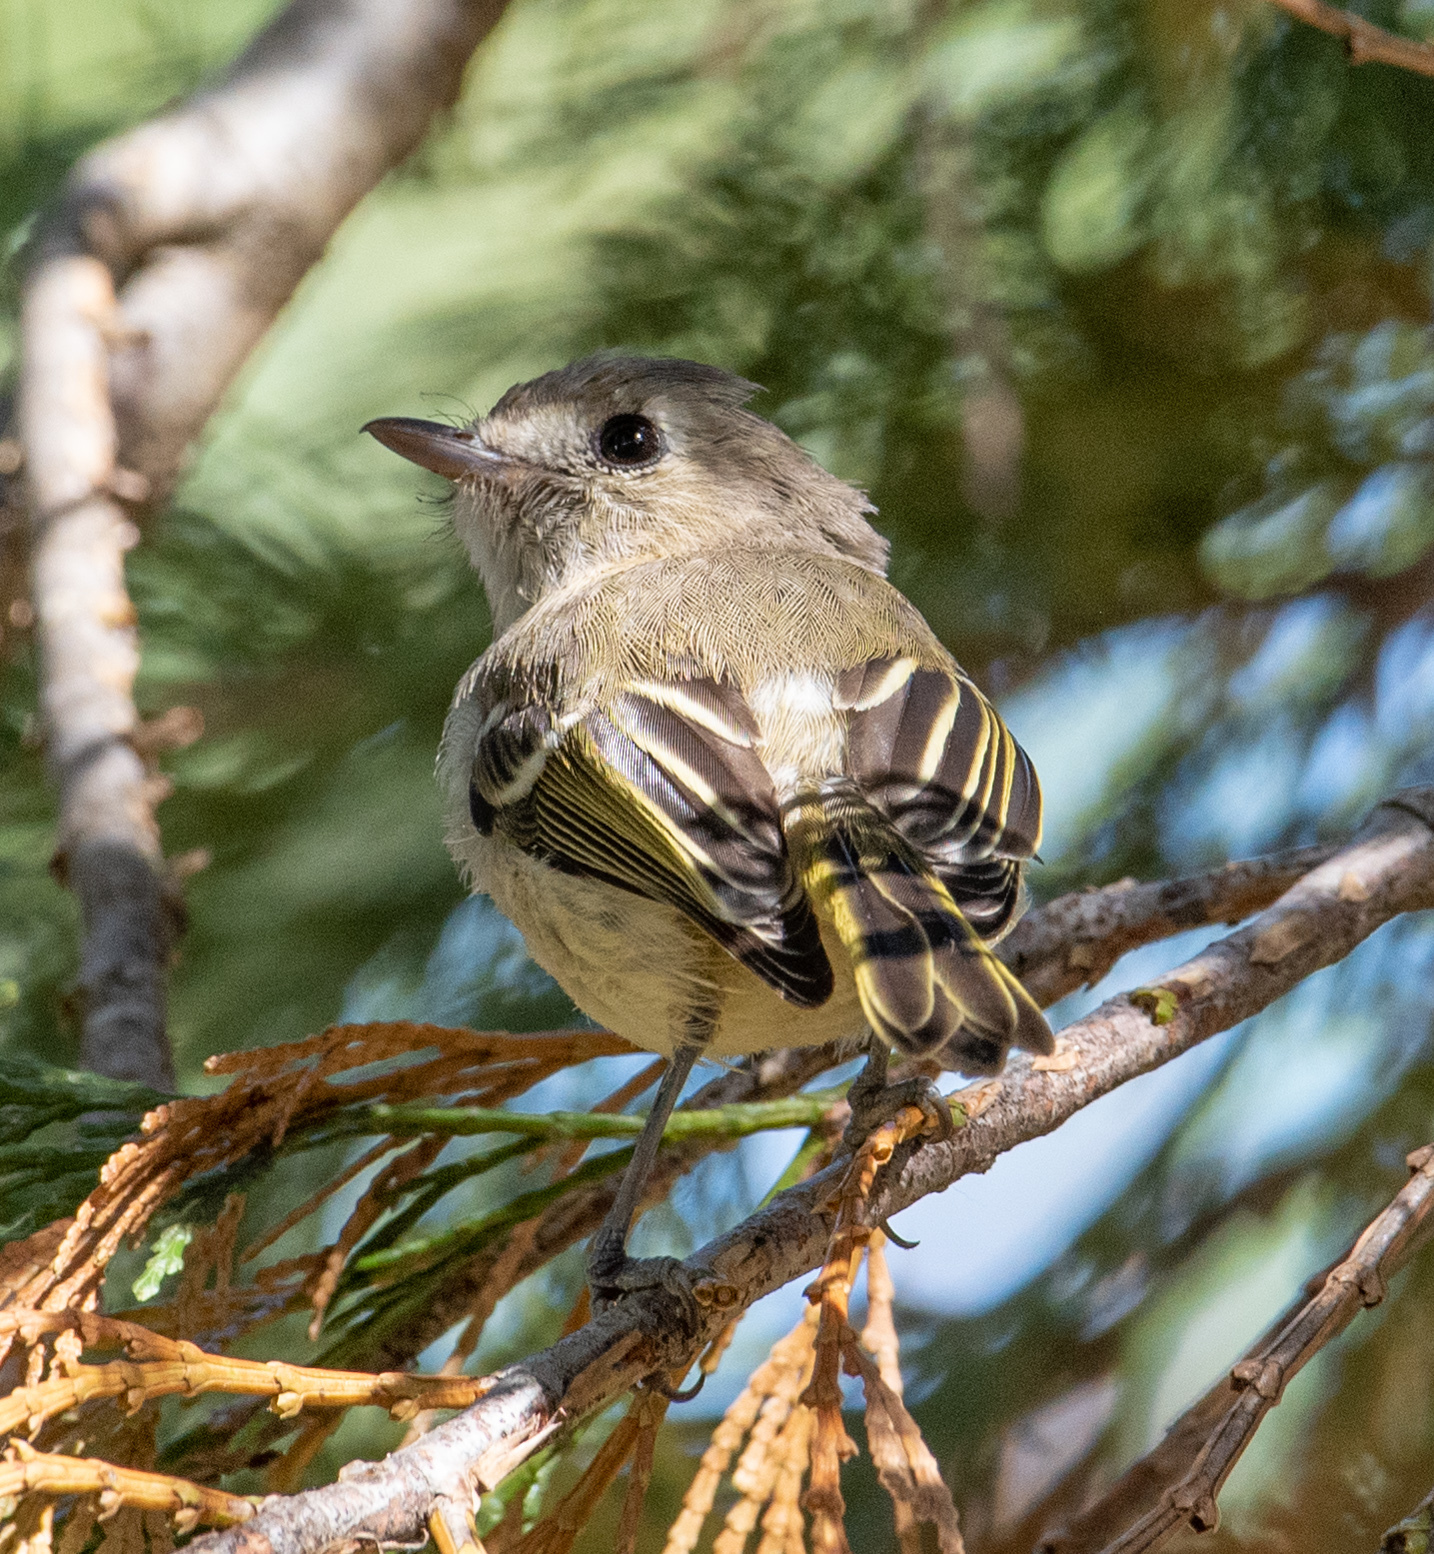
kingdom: Animalia
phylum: Chordata
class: Aves
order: Passeriformes
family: Vireonidae
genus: Vireo
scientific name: Vireo huttoni
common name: Hutton's vireo
